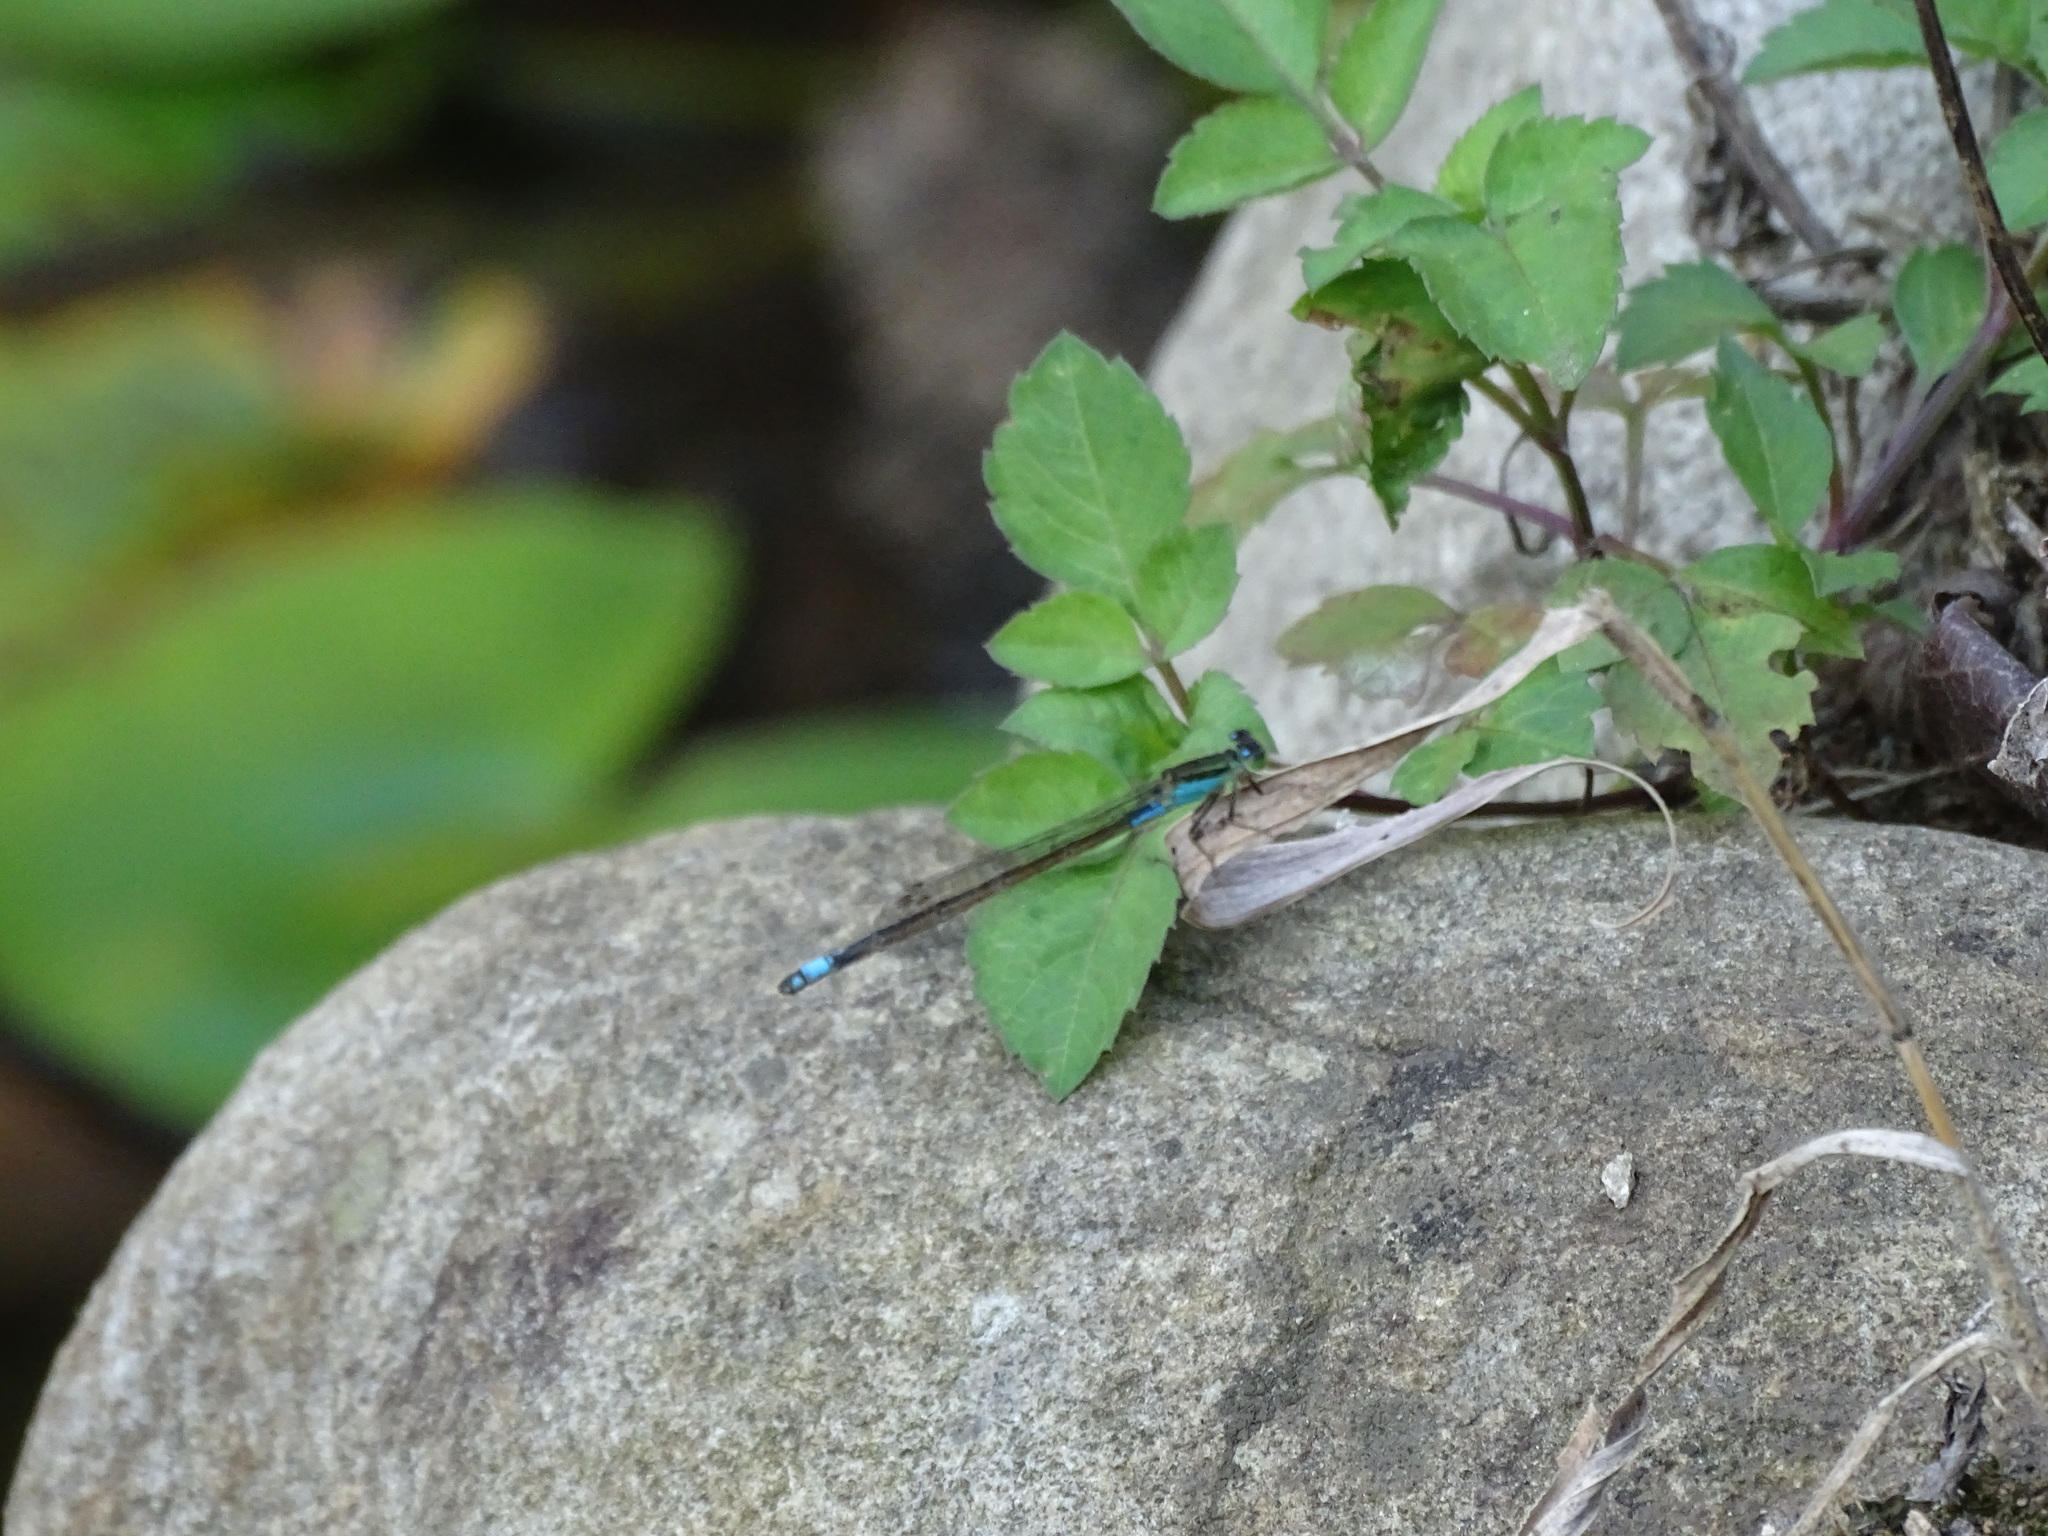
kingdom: Animalia
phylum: Arthropoda
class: Insecta
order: Odonata
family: Coenagrionidae
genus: Ischnura
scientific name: Ischnura senegalensis
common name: Tropical bluetail
